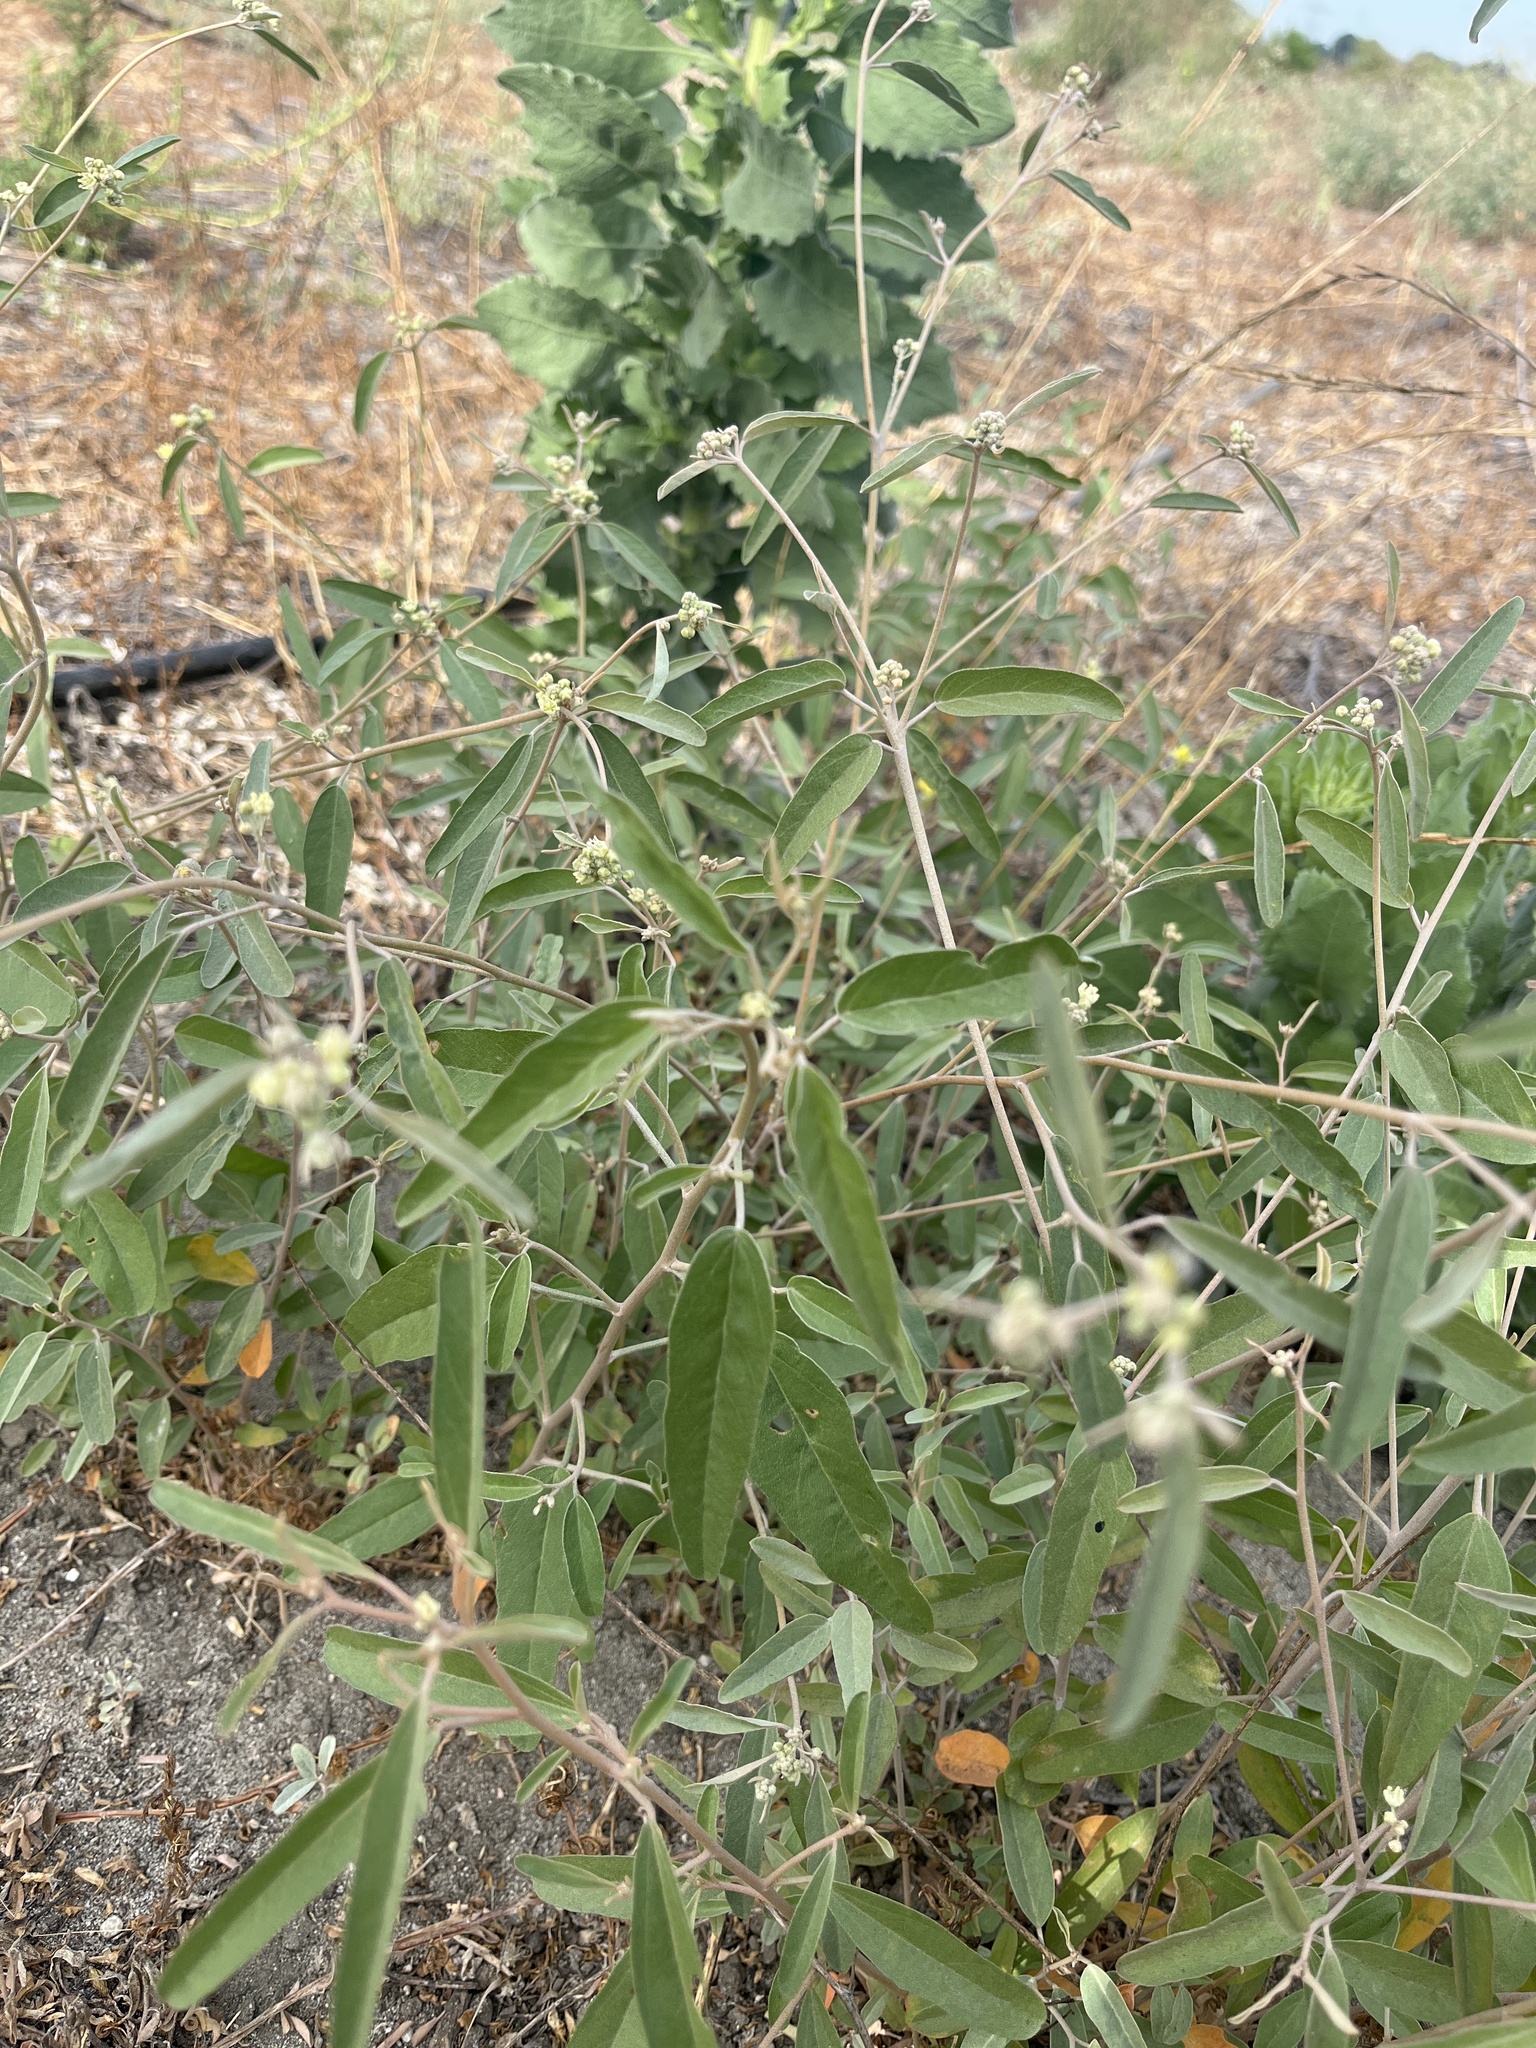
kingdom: Plantae
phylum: Tracheophyta
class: Magnoliopsida
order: Malpighiales
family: Euphorbiaceae
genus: Croton
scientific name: Croton californicus
